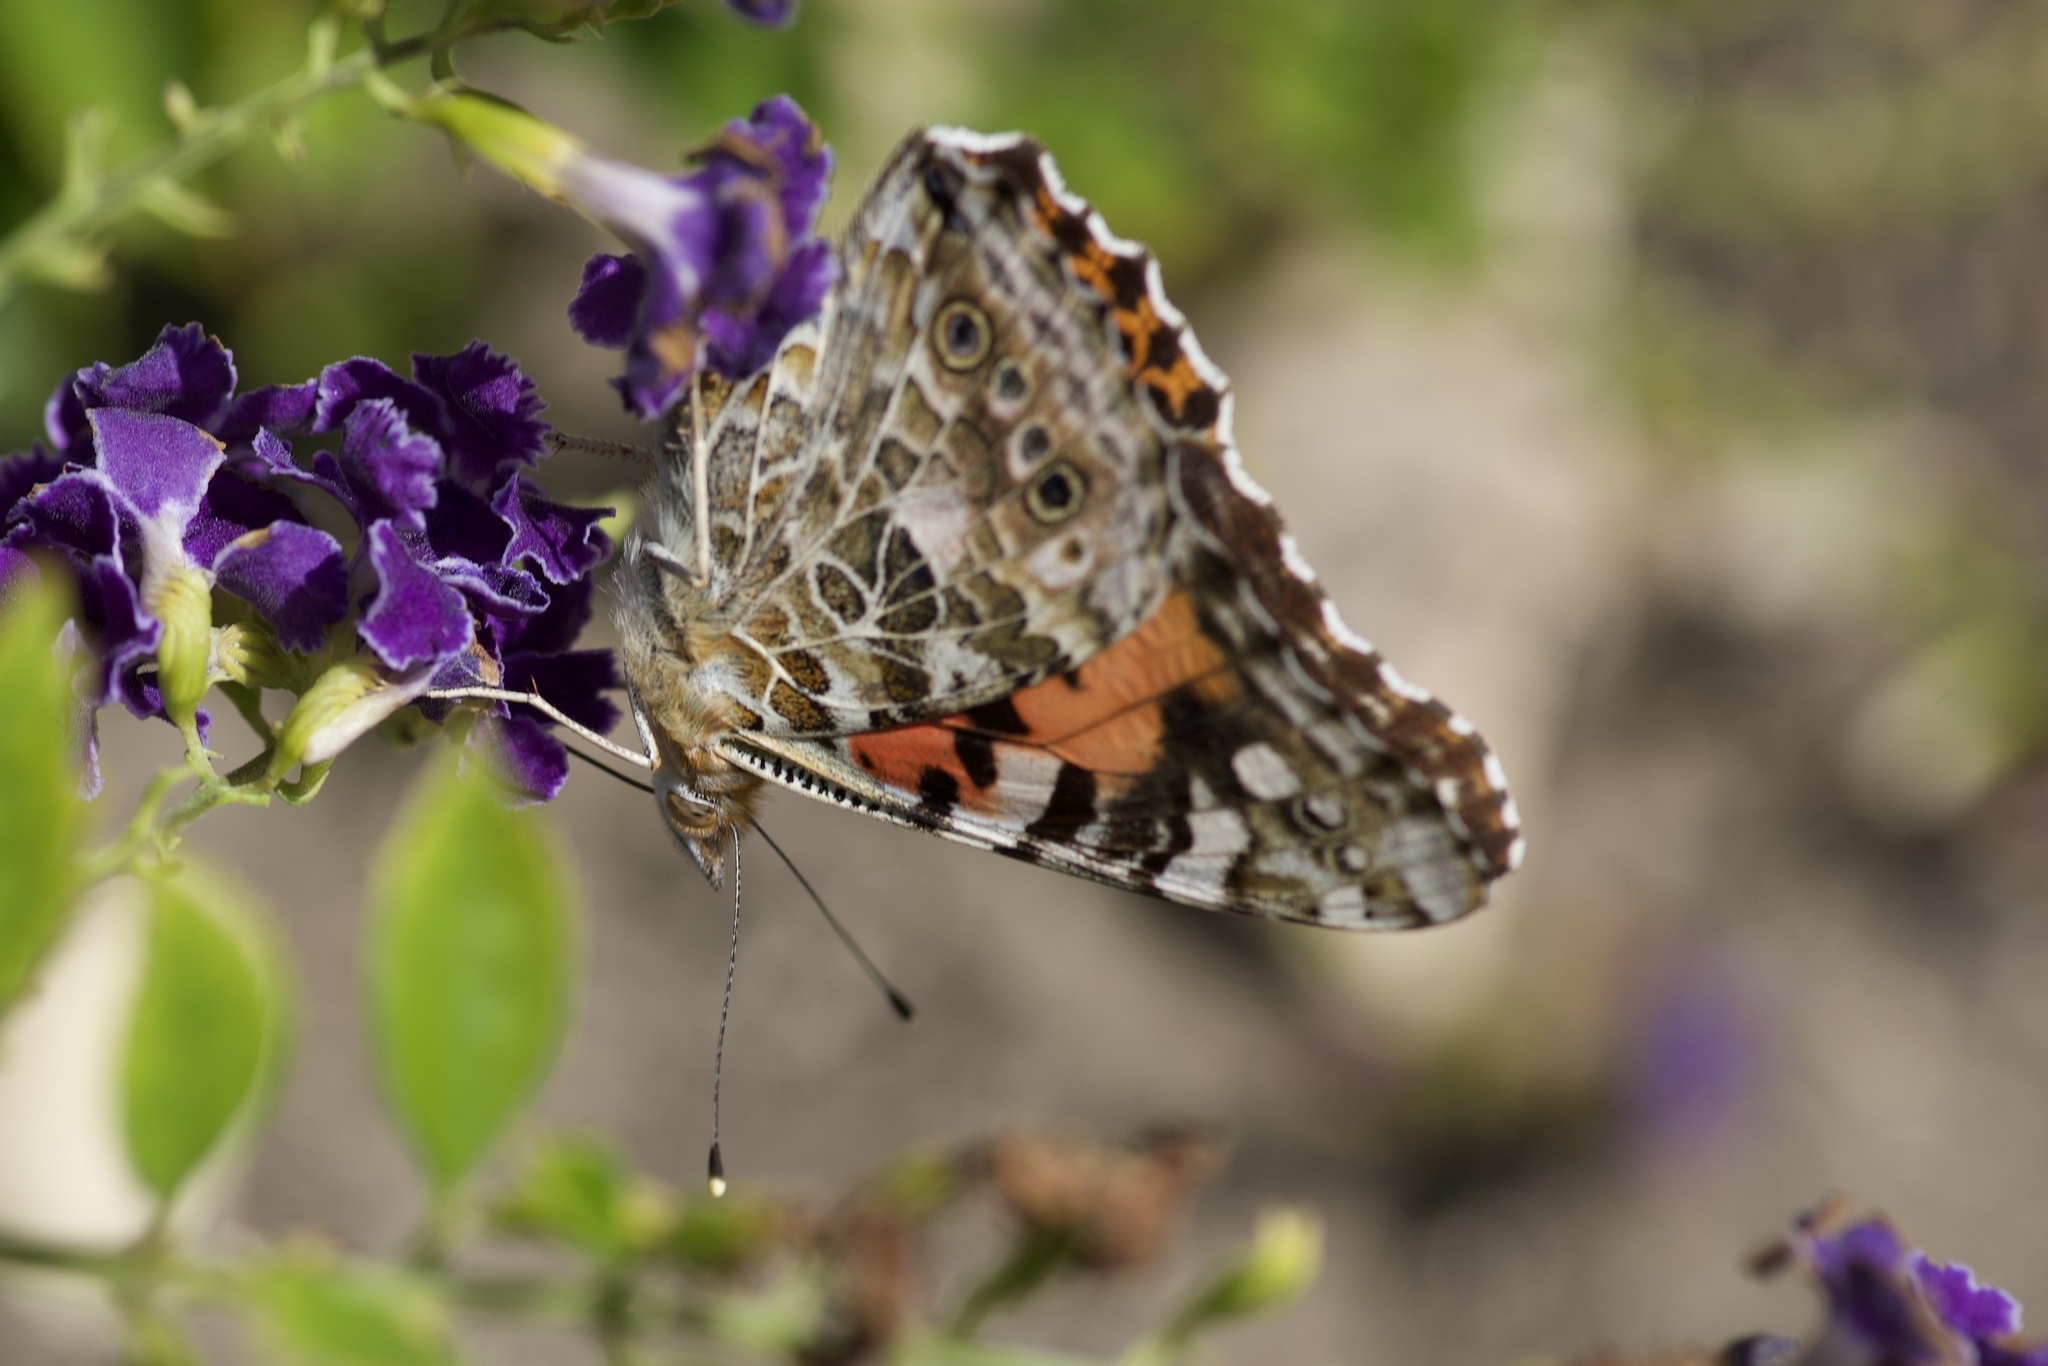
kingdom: Animalia
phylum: Arthropoda
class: Insecta
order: Lepidoptera
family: Nymphalidae
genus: Vanessa
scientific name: Vanessa cardui
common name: Painted lady
